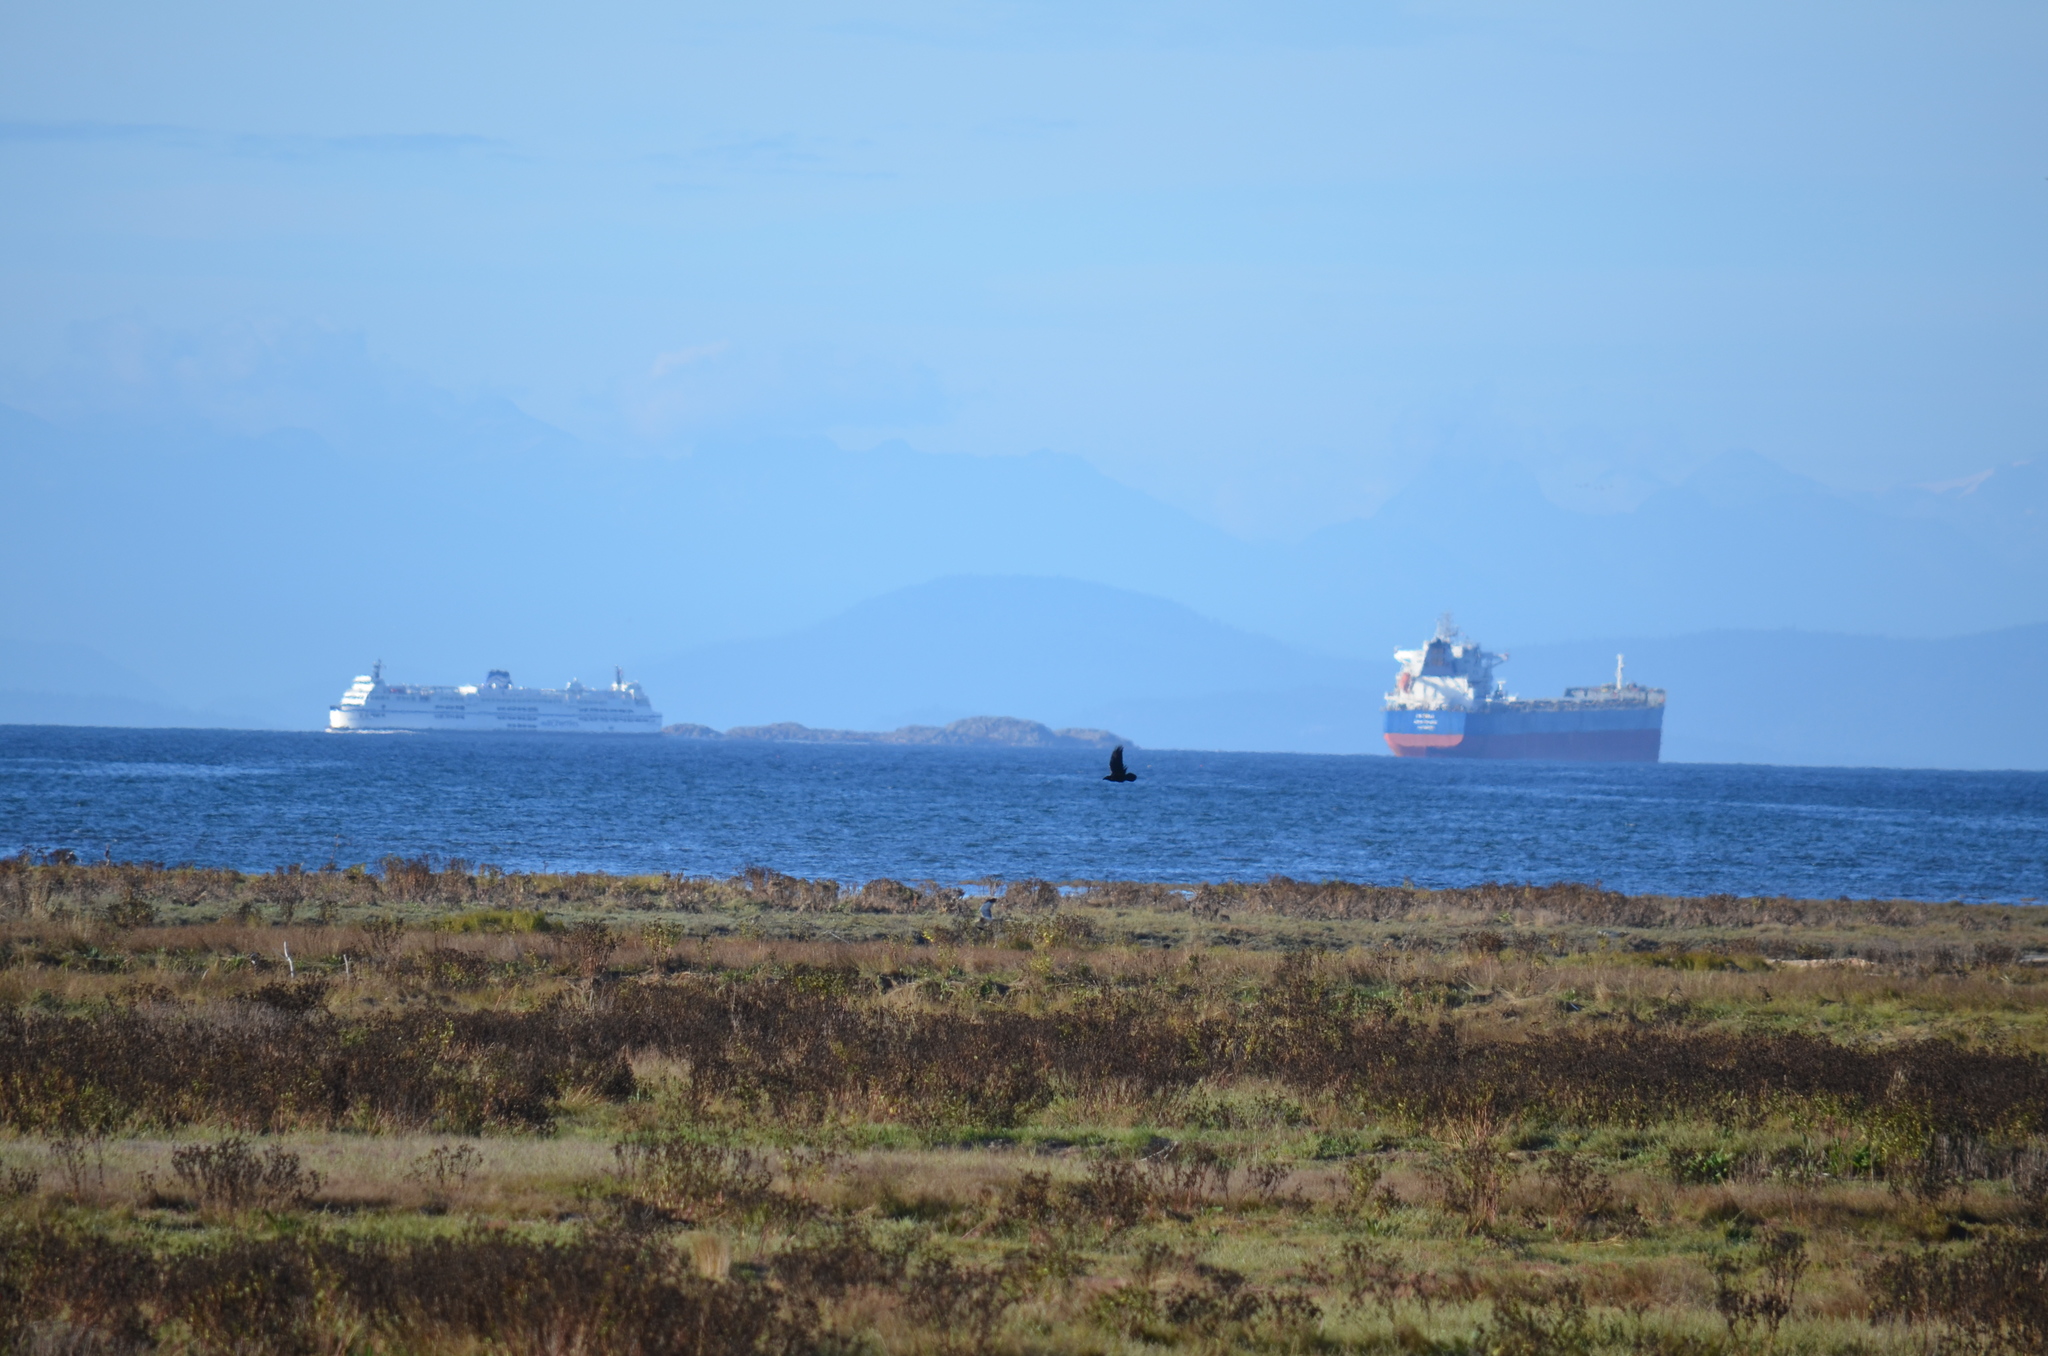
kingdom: Animalia
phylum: Chordata
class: Aves
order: Passeriformes
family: Corvidae
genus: Corvus
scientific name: Corvus corax
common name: Common raven
